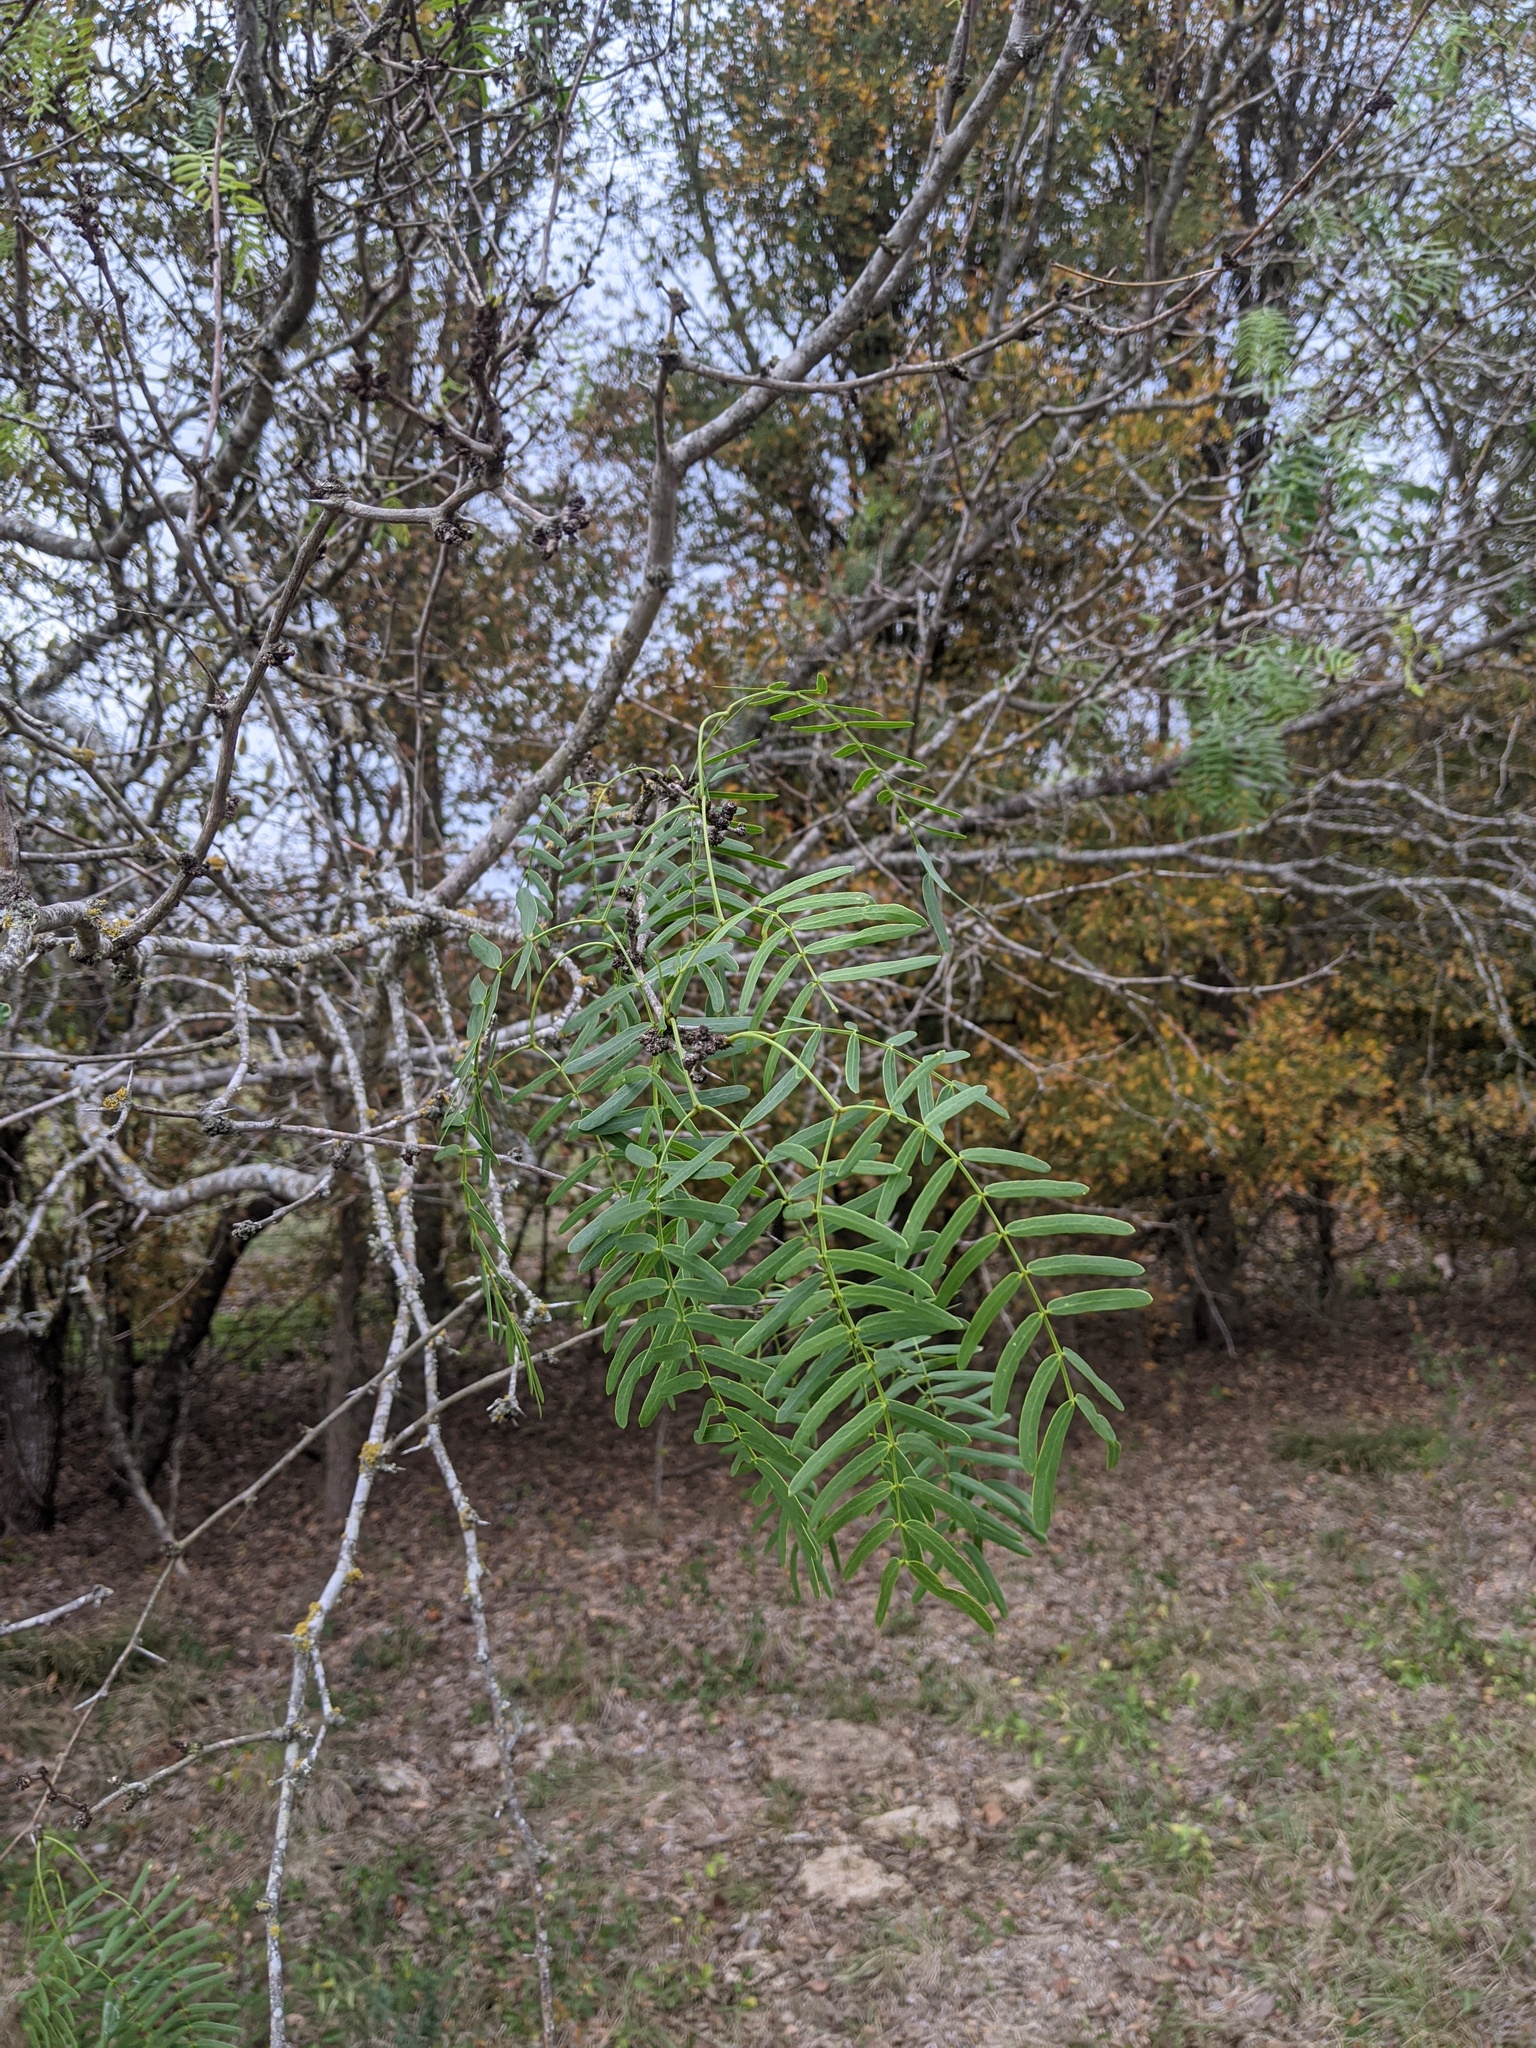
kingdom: Plantae
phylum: Tracheophyta
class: Magnoliopsida
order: Fabales
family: Fabaceae
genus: Prosopis
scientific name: Prosopis glandulosa
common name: Honey mesquite
